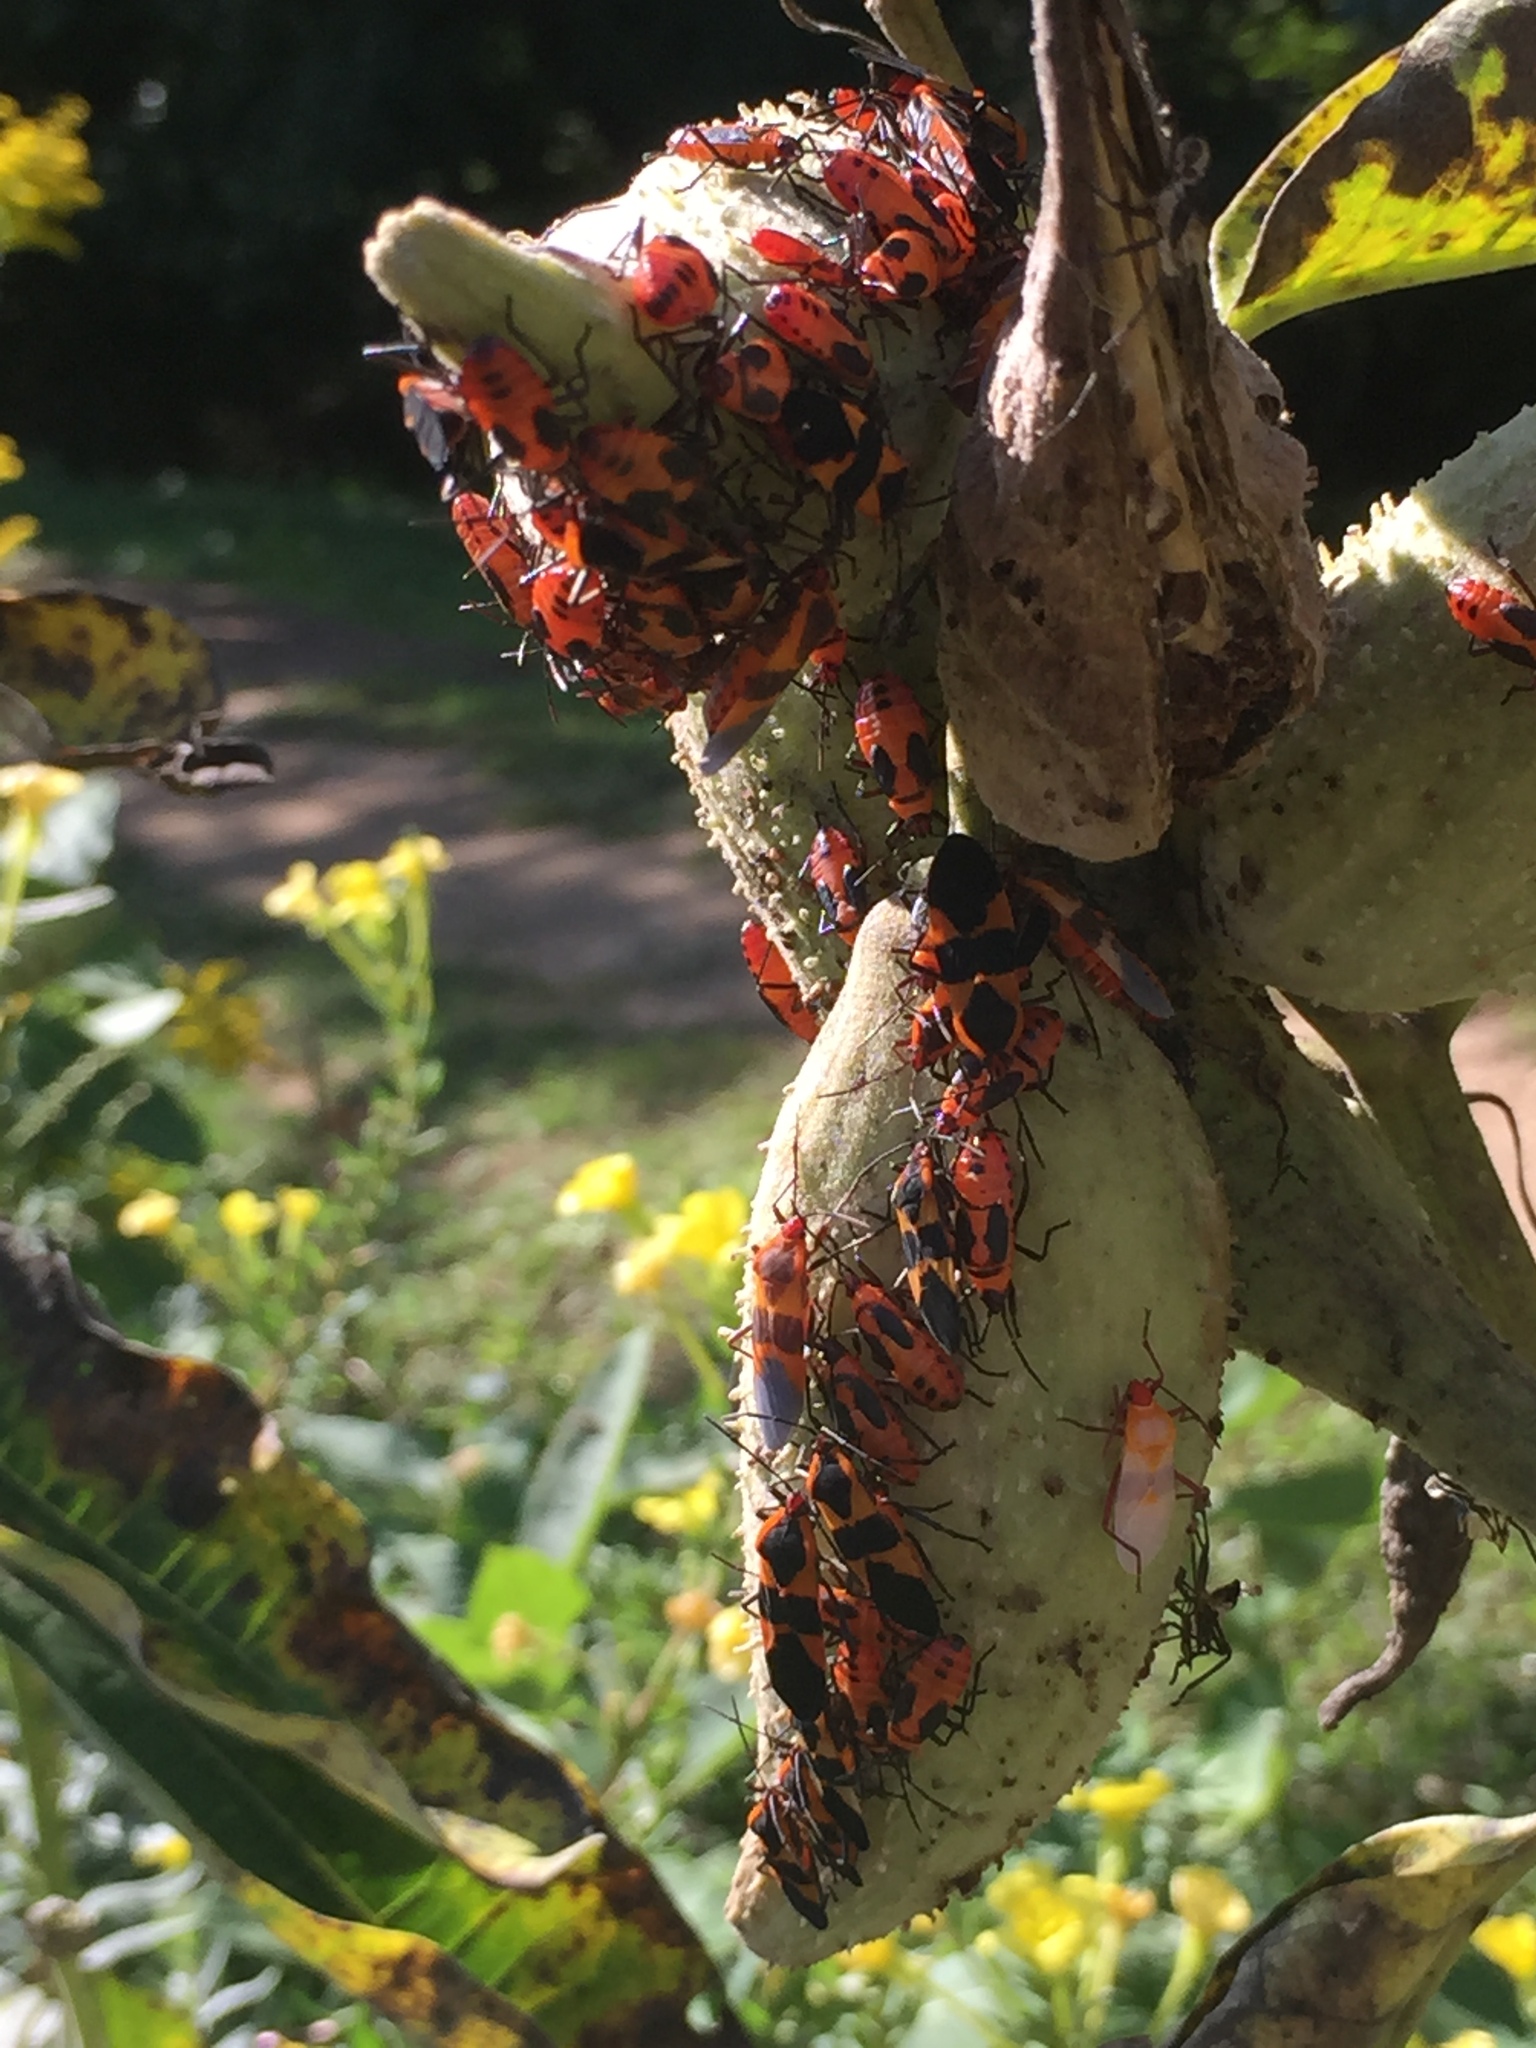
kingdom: Animalia
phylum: Arthropoda
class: Insecta
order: Hemiptera
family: Lygaeidae
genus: Oncopeltus
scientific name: Oncopeltus fasciatus
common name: Large milkweed bug
